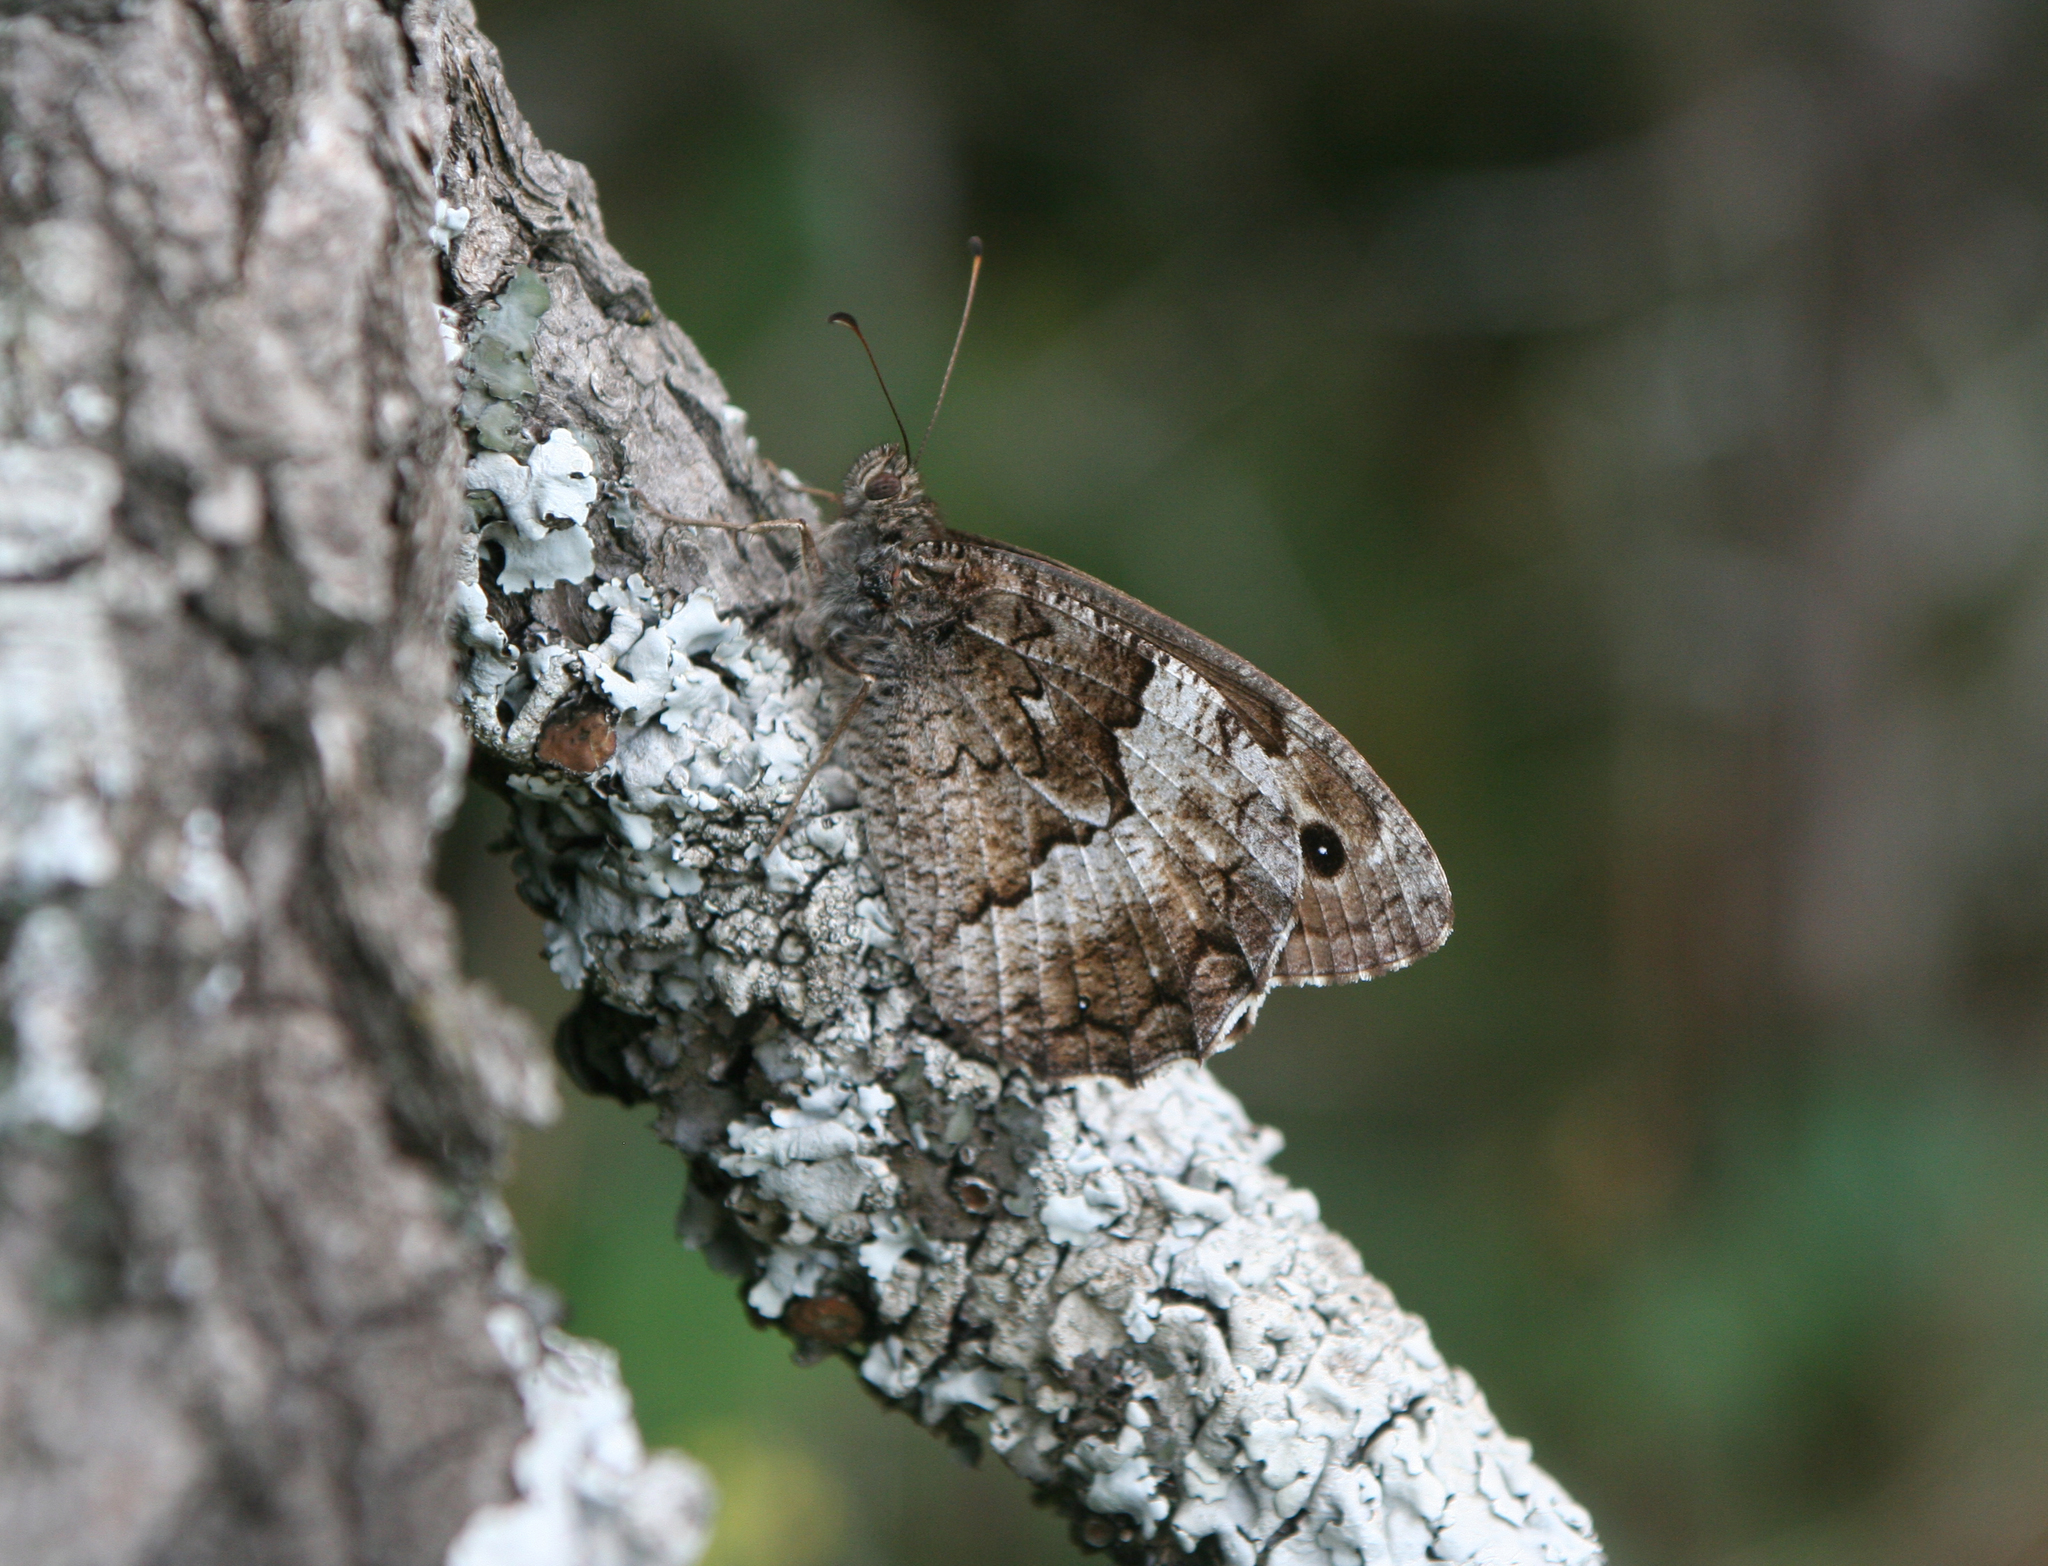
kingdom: Animalia
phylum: Arthropoda
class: Insecta
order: Lepidoptera
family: Nymphalidae
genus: Hipparchia
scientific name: Hipparchia fagi
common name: Woodland grayling
